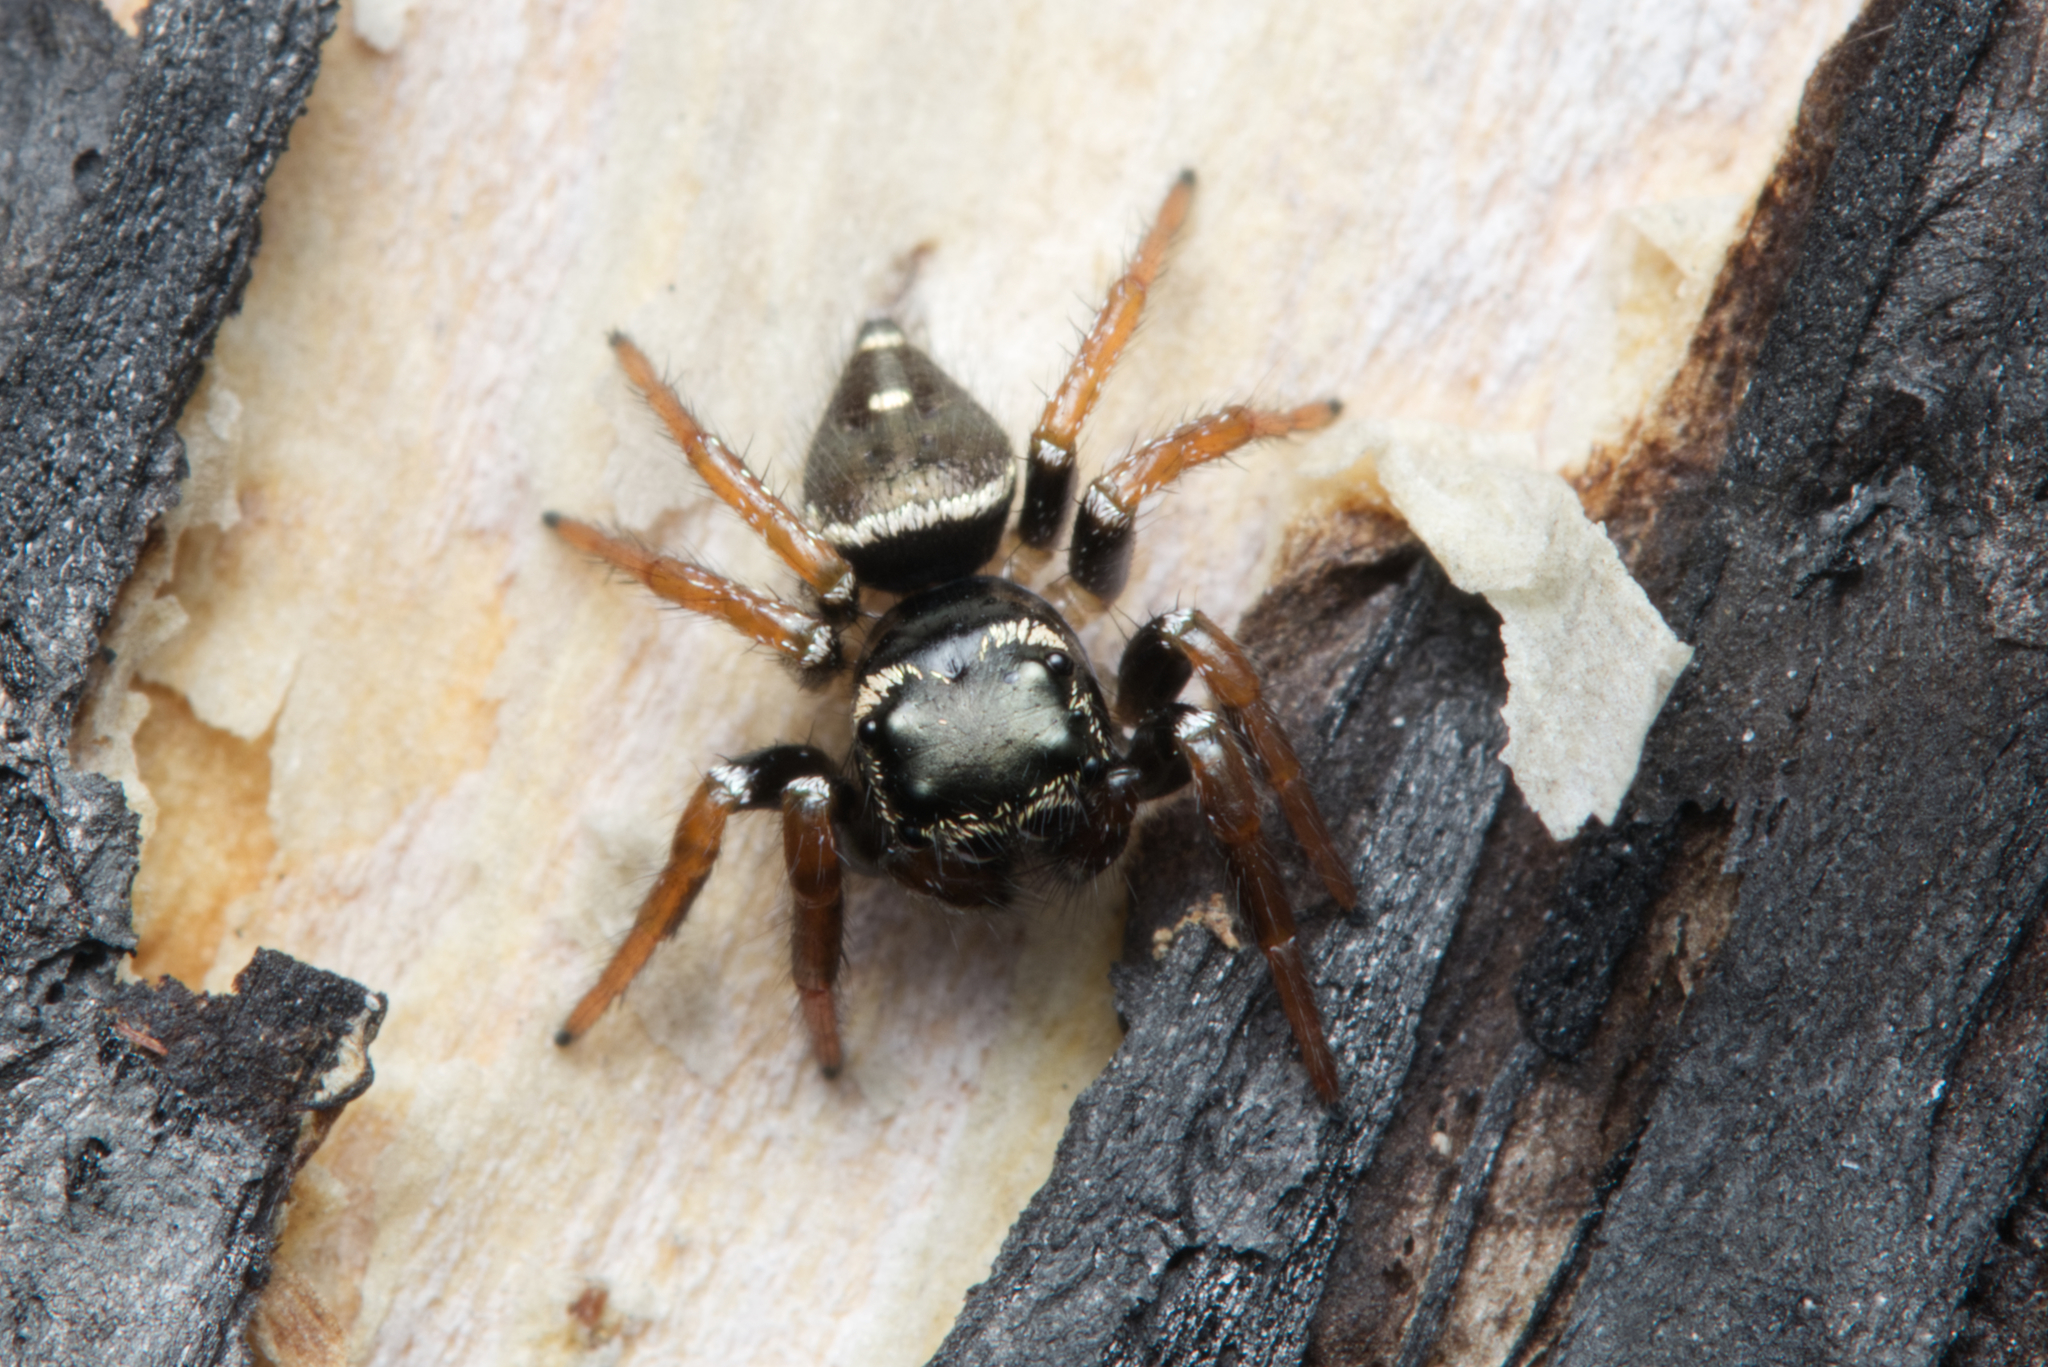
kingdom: Animalia
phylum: Arthropoda
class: Arachnida
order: Araneae
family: Salticidae
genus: Zenodorus
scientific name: Zenodorus orbiculatus
